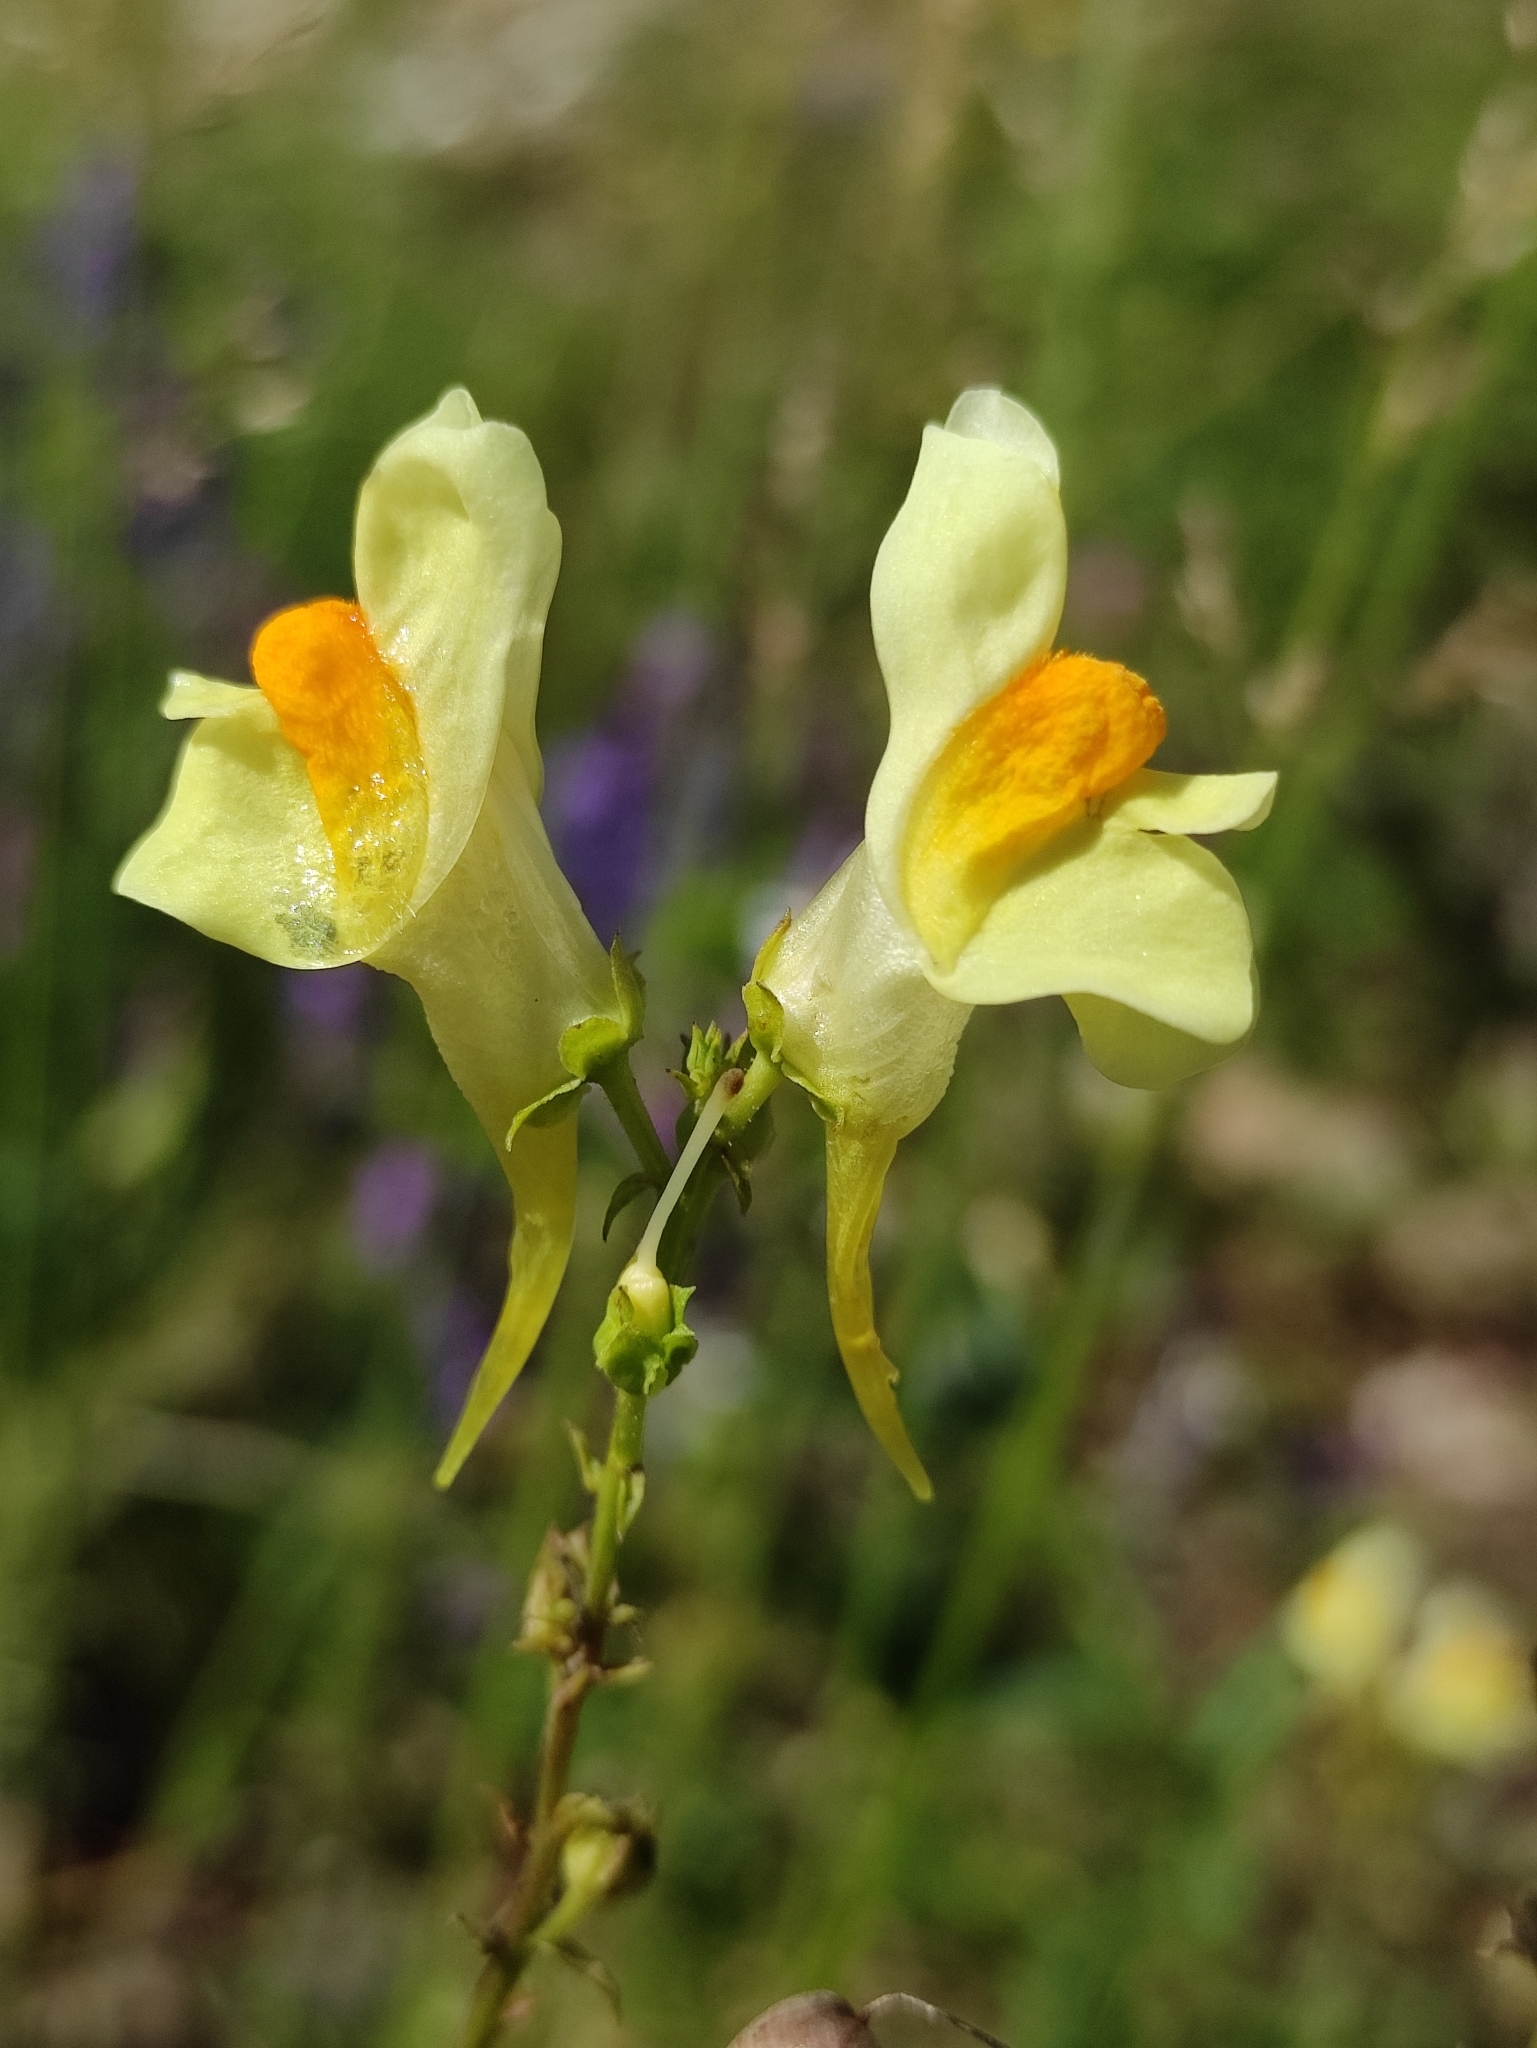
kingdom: Plantae
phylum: Tracheophyta
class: Magnoliopsida
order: Lamiales
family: Plantaginaceae
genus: Linaria
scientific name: Linaria vulgaris
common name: Butter and eggs
